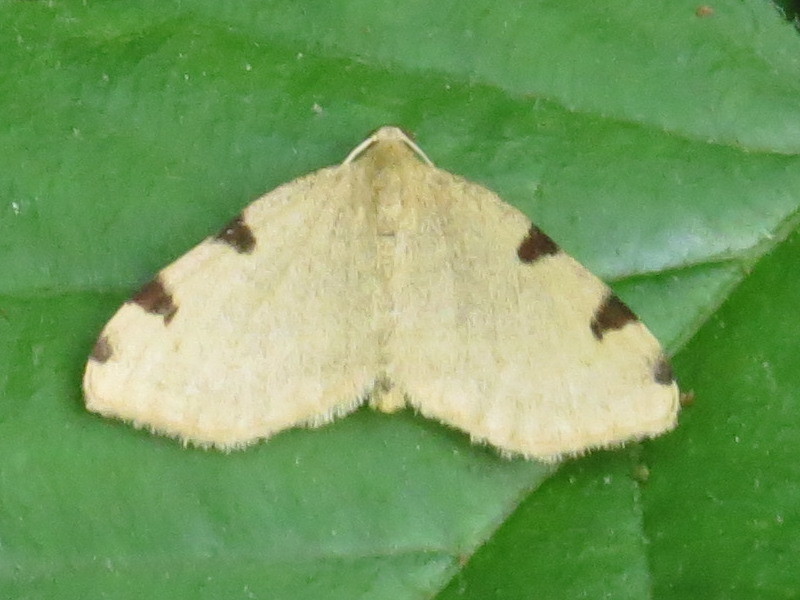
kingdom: Animalia
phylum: Arthropoda
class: Insecta
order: Lepidoptera
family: Geometridae
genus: Heterophleps
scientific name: Heterophleps triguttaria
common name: Three-spotted fillip
